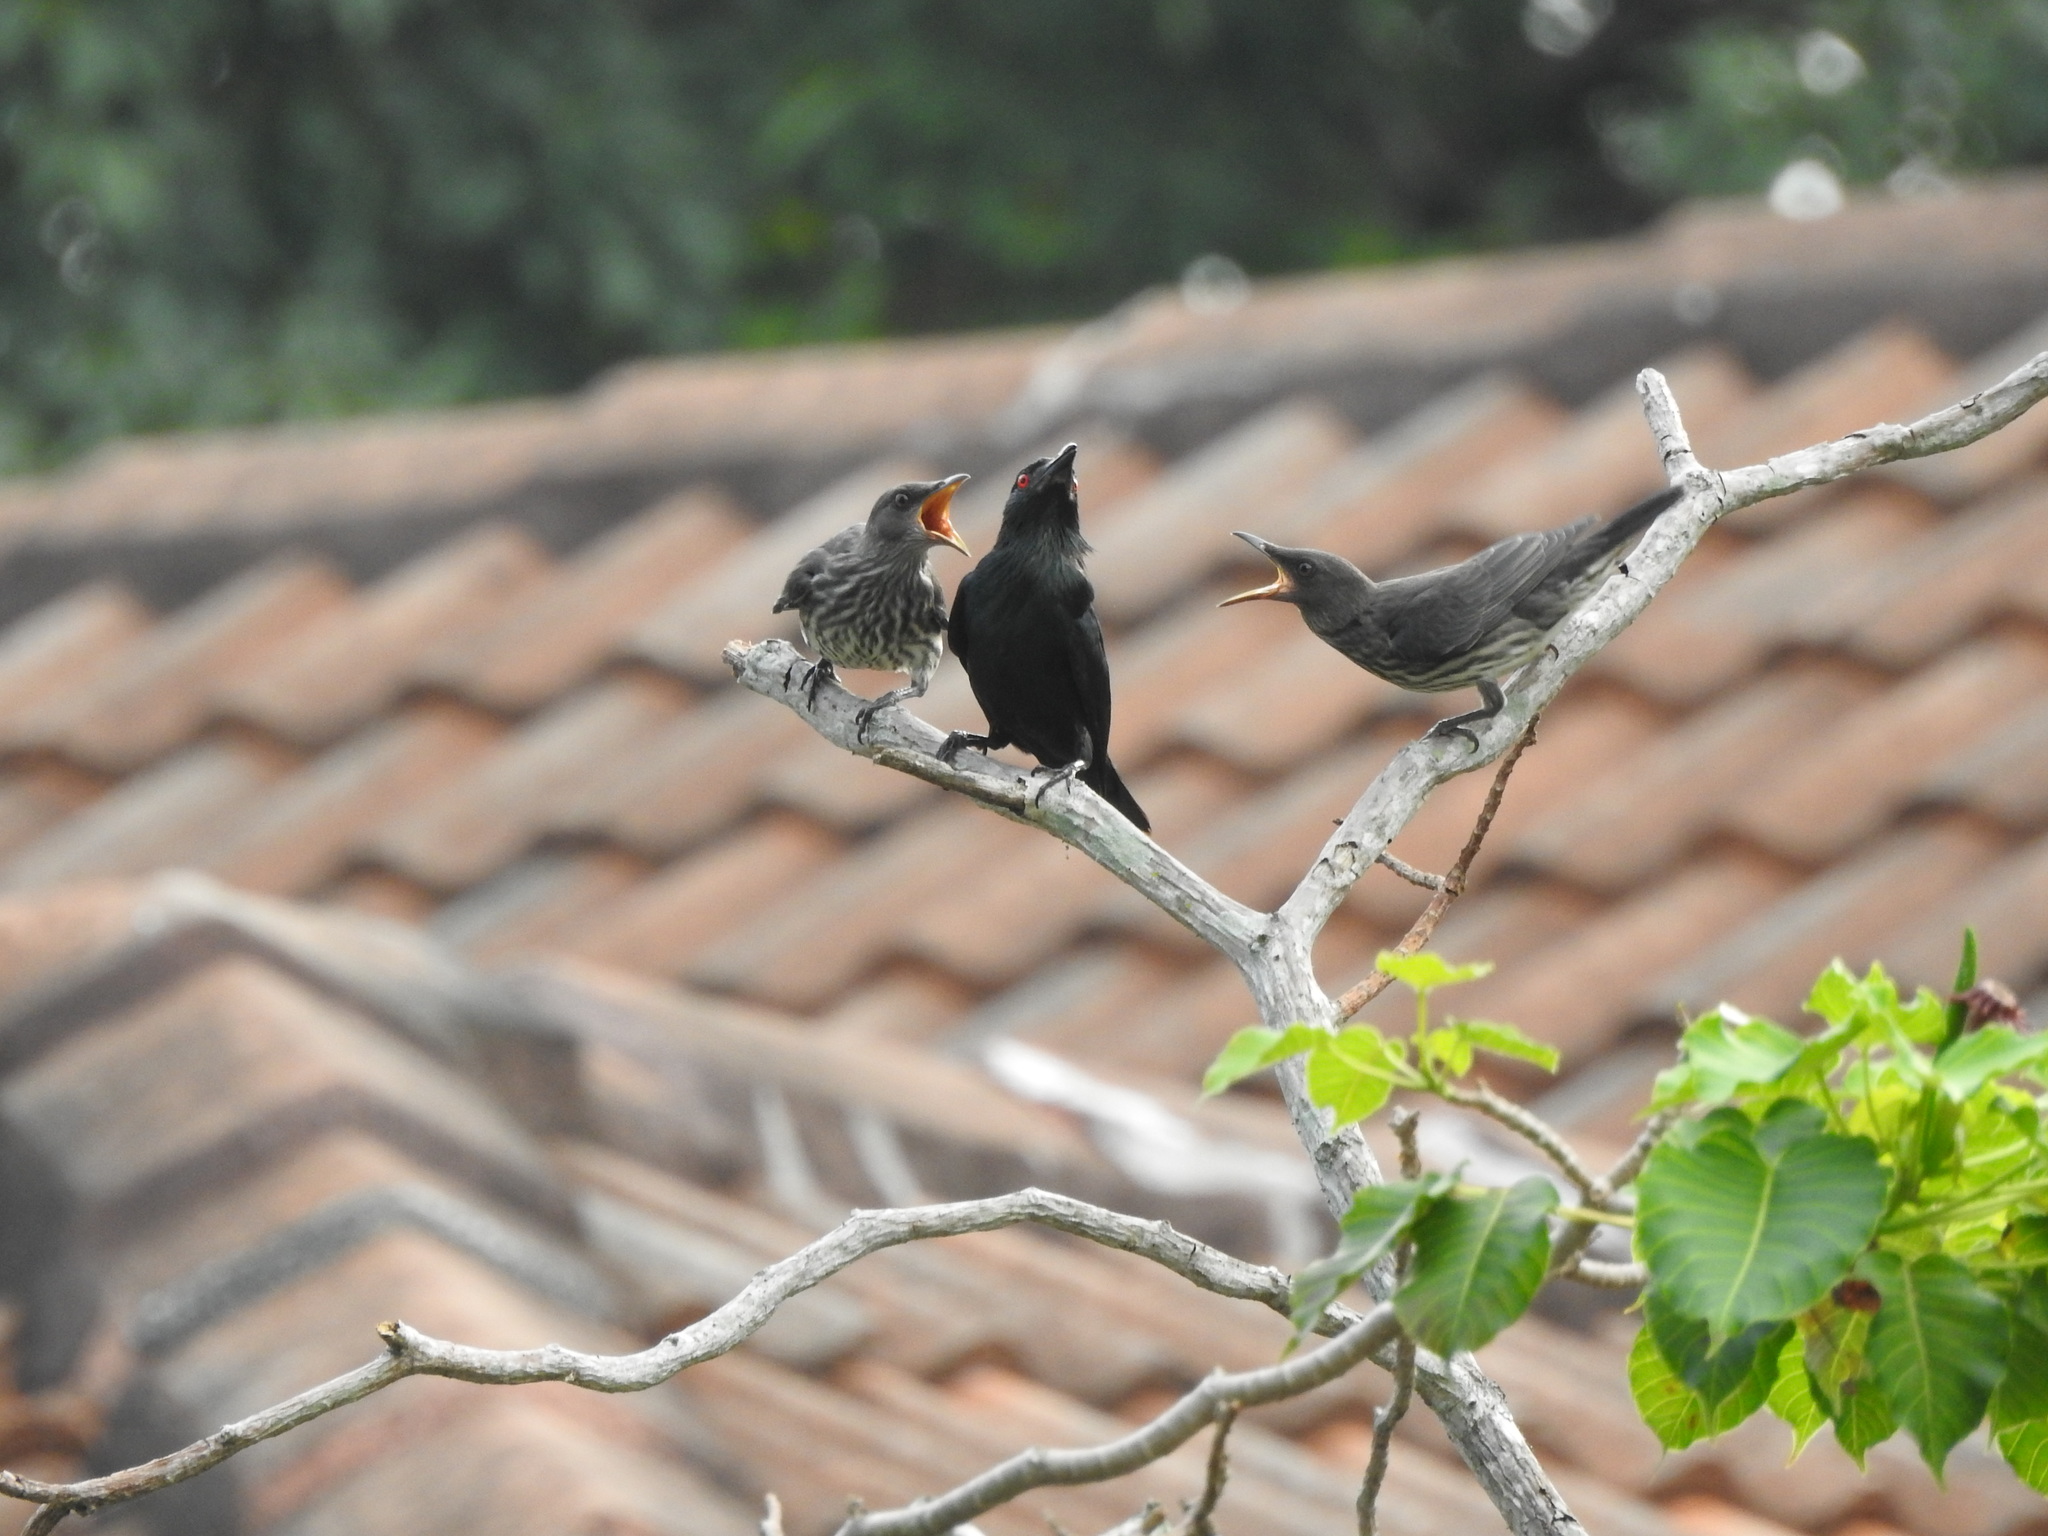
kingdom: Animalia
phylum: Chordata
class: Aves
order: Passeriformes
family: Sturnidae
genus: Aplonis
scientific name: Aplonis panayensis
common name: Asian glossy starling
